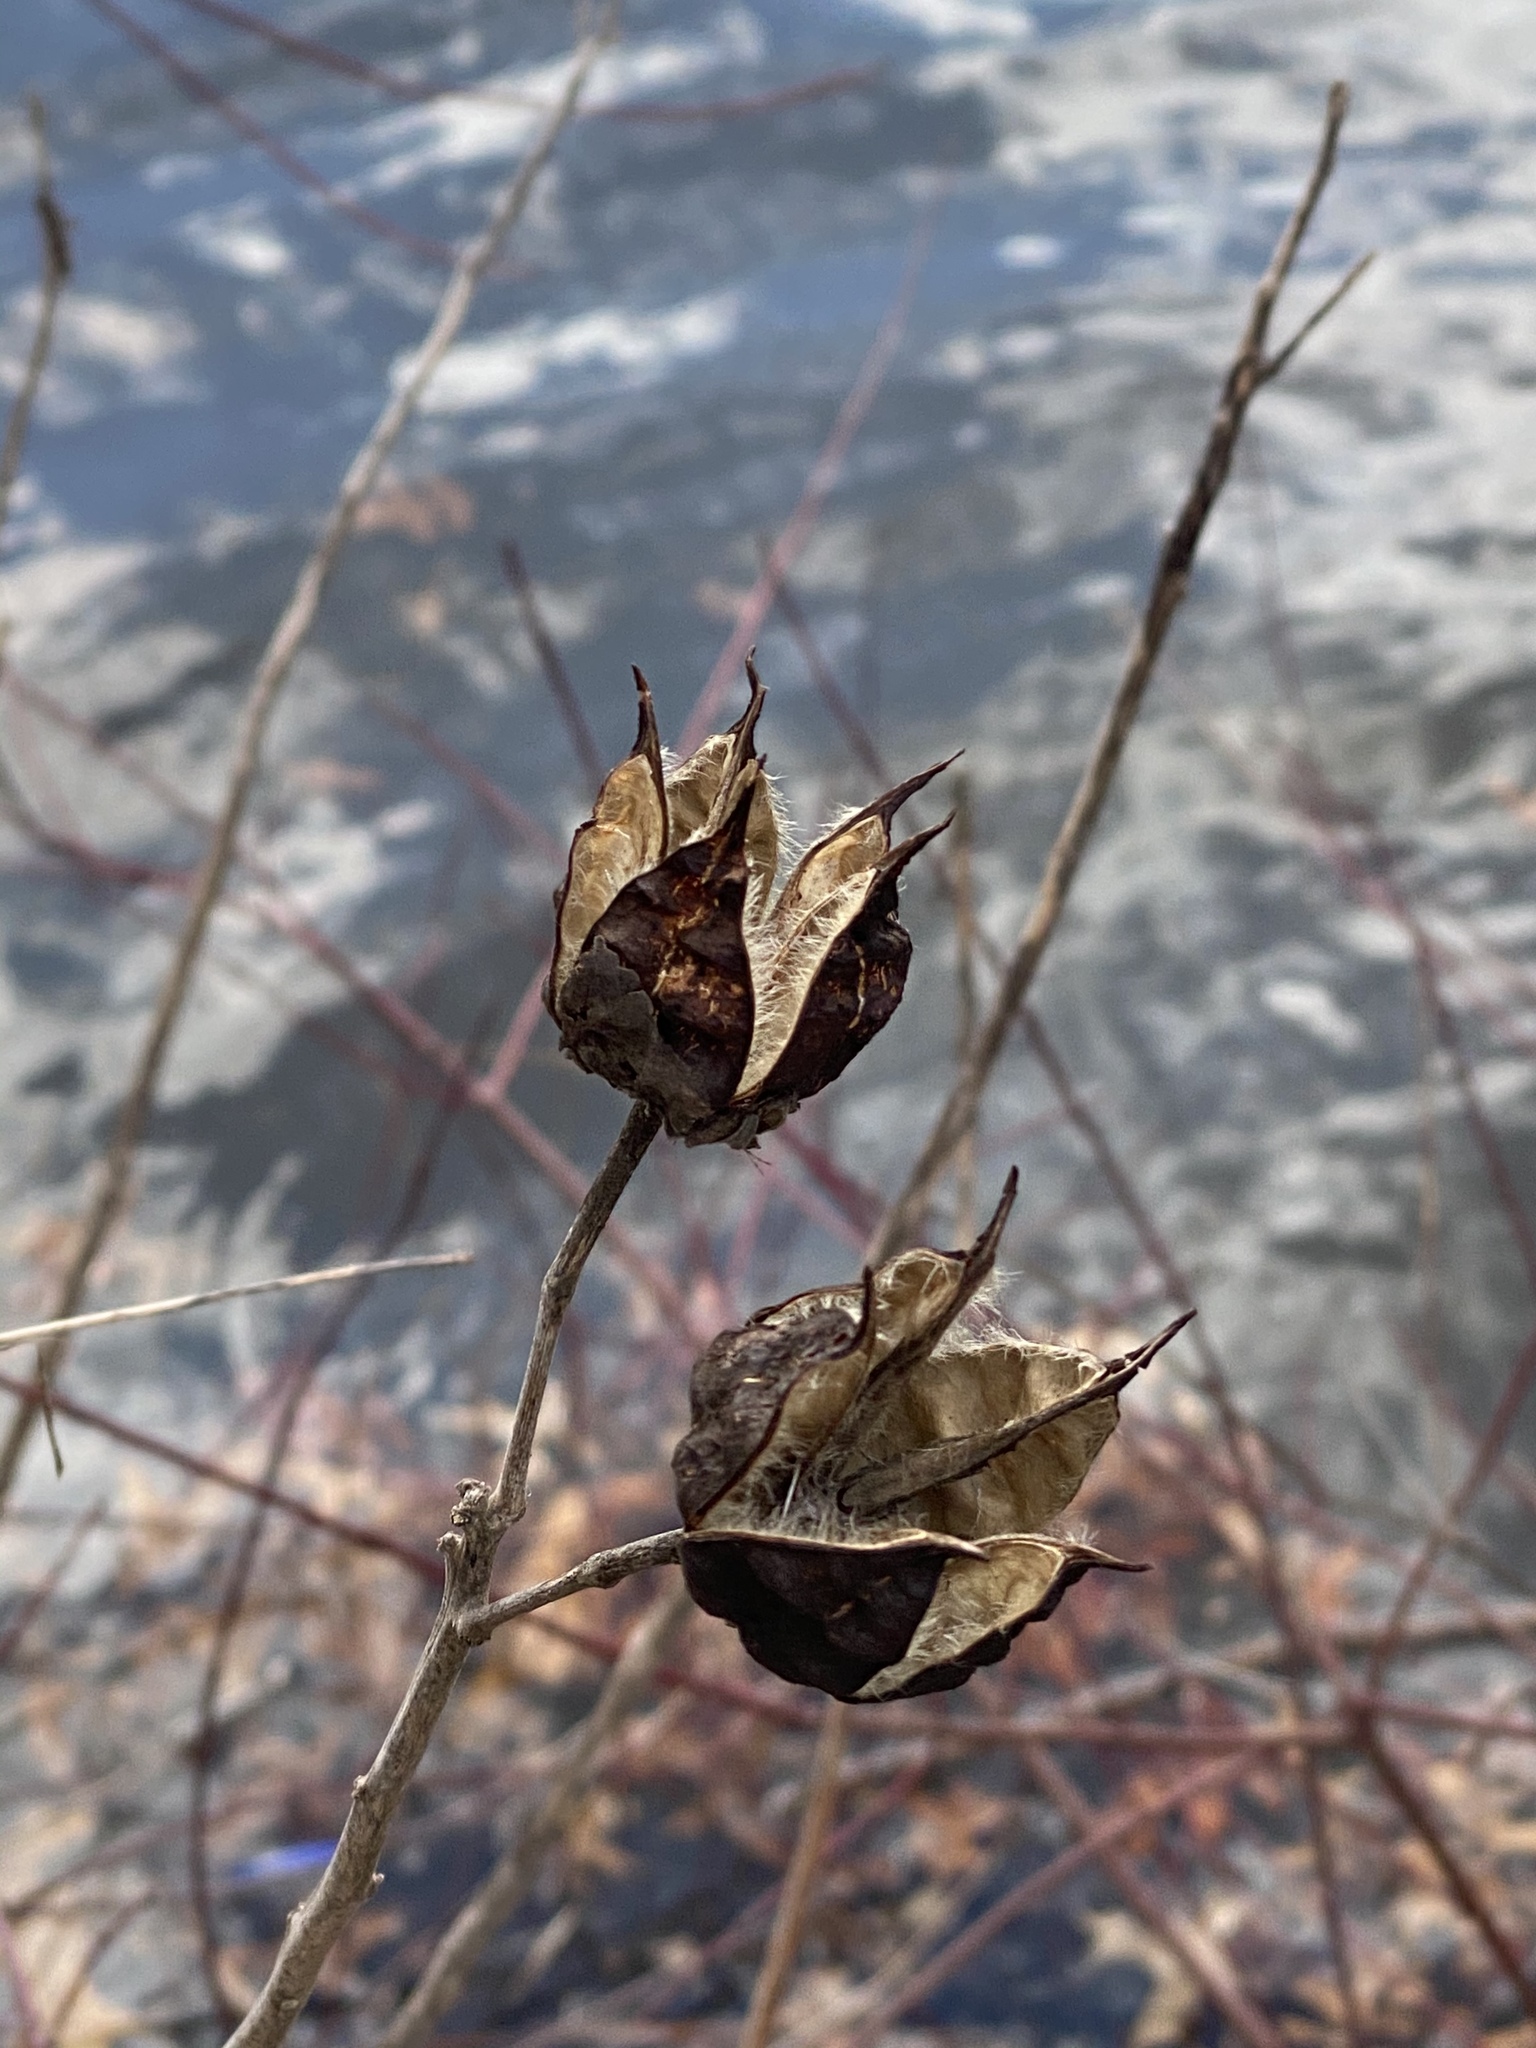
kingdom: Plantae
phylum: Tracheophyta
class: Magnoliopsida
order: Malvales
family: Malvaceae
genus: Hibiscus
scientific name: Hibiscus moscheutos
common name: Common rose-mallow
